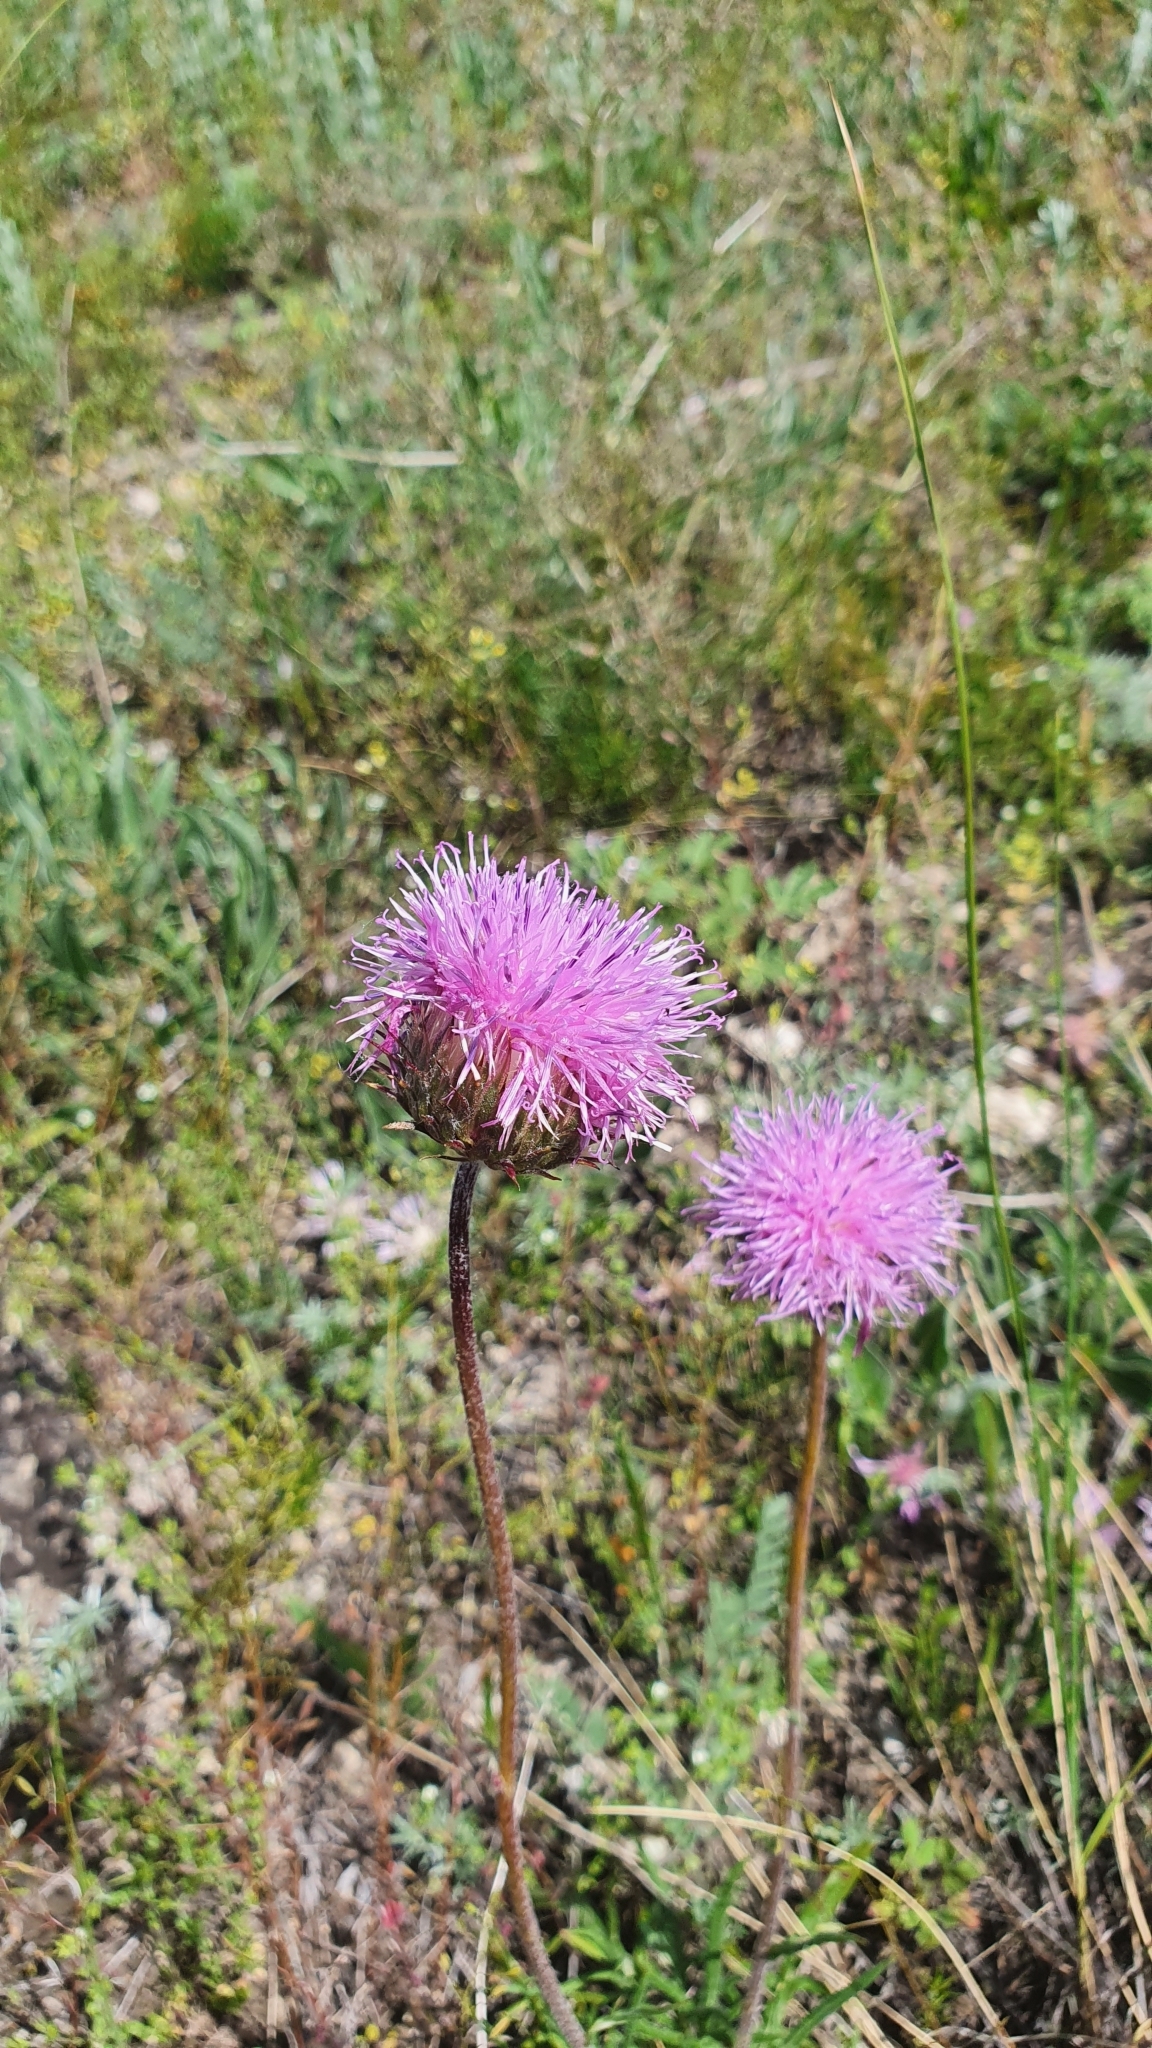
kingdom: Plantae
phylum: Tracheophyta
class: Magnoliopsida
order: Asterales
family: Asteraceae
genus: Jurinea
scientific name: Jurinea ledebourii
